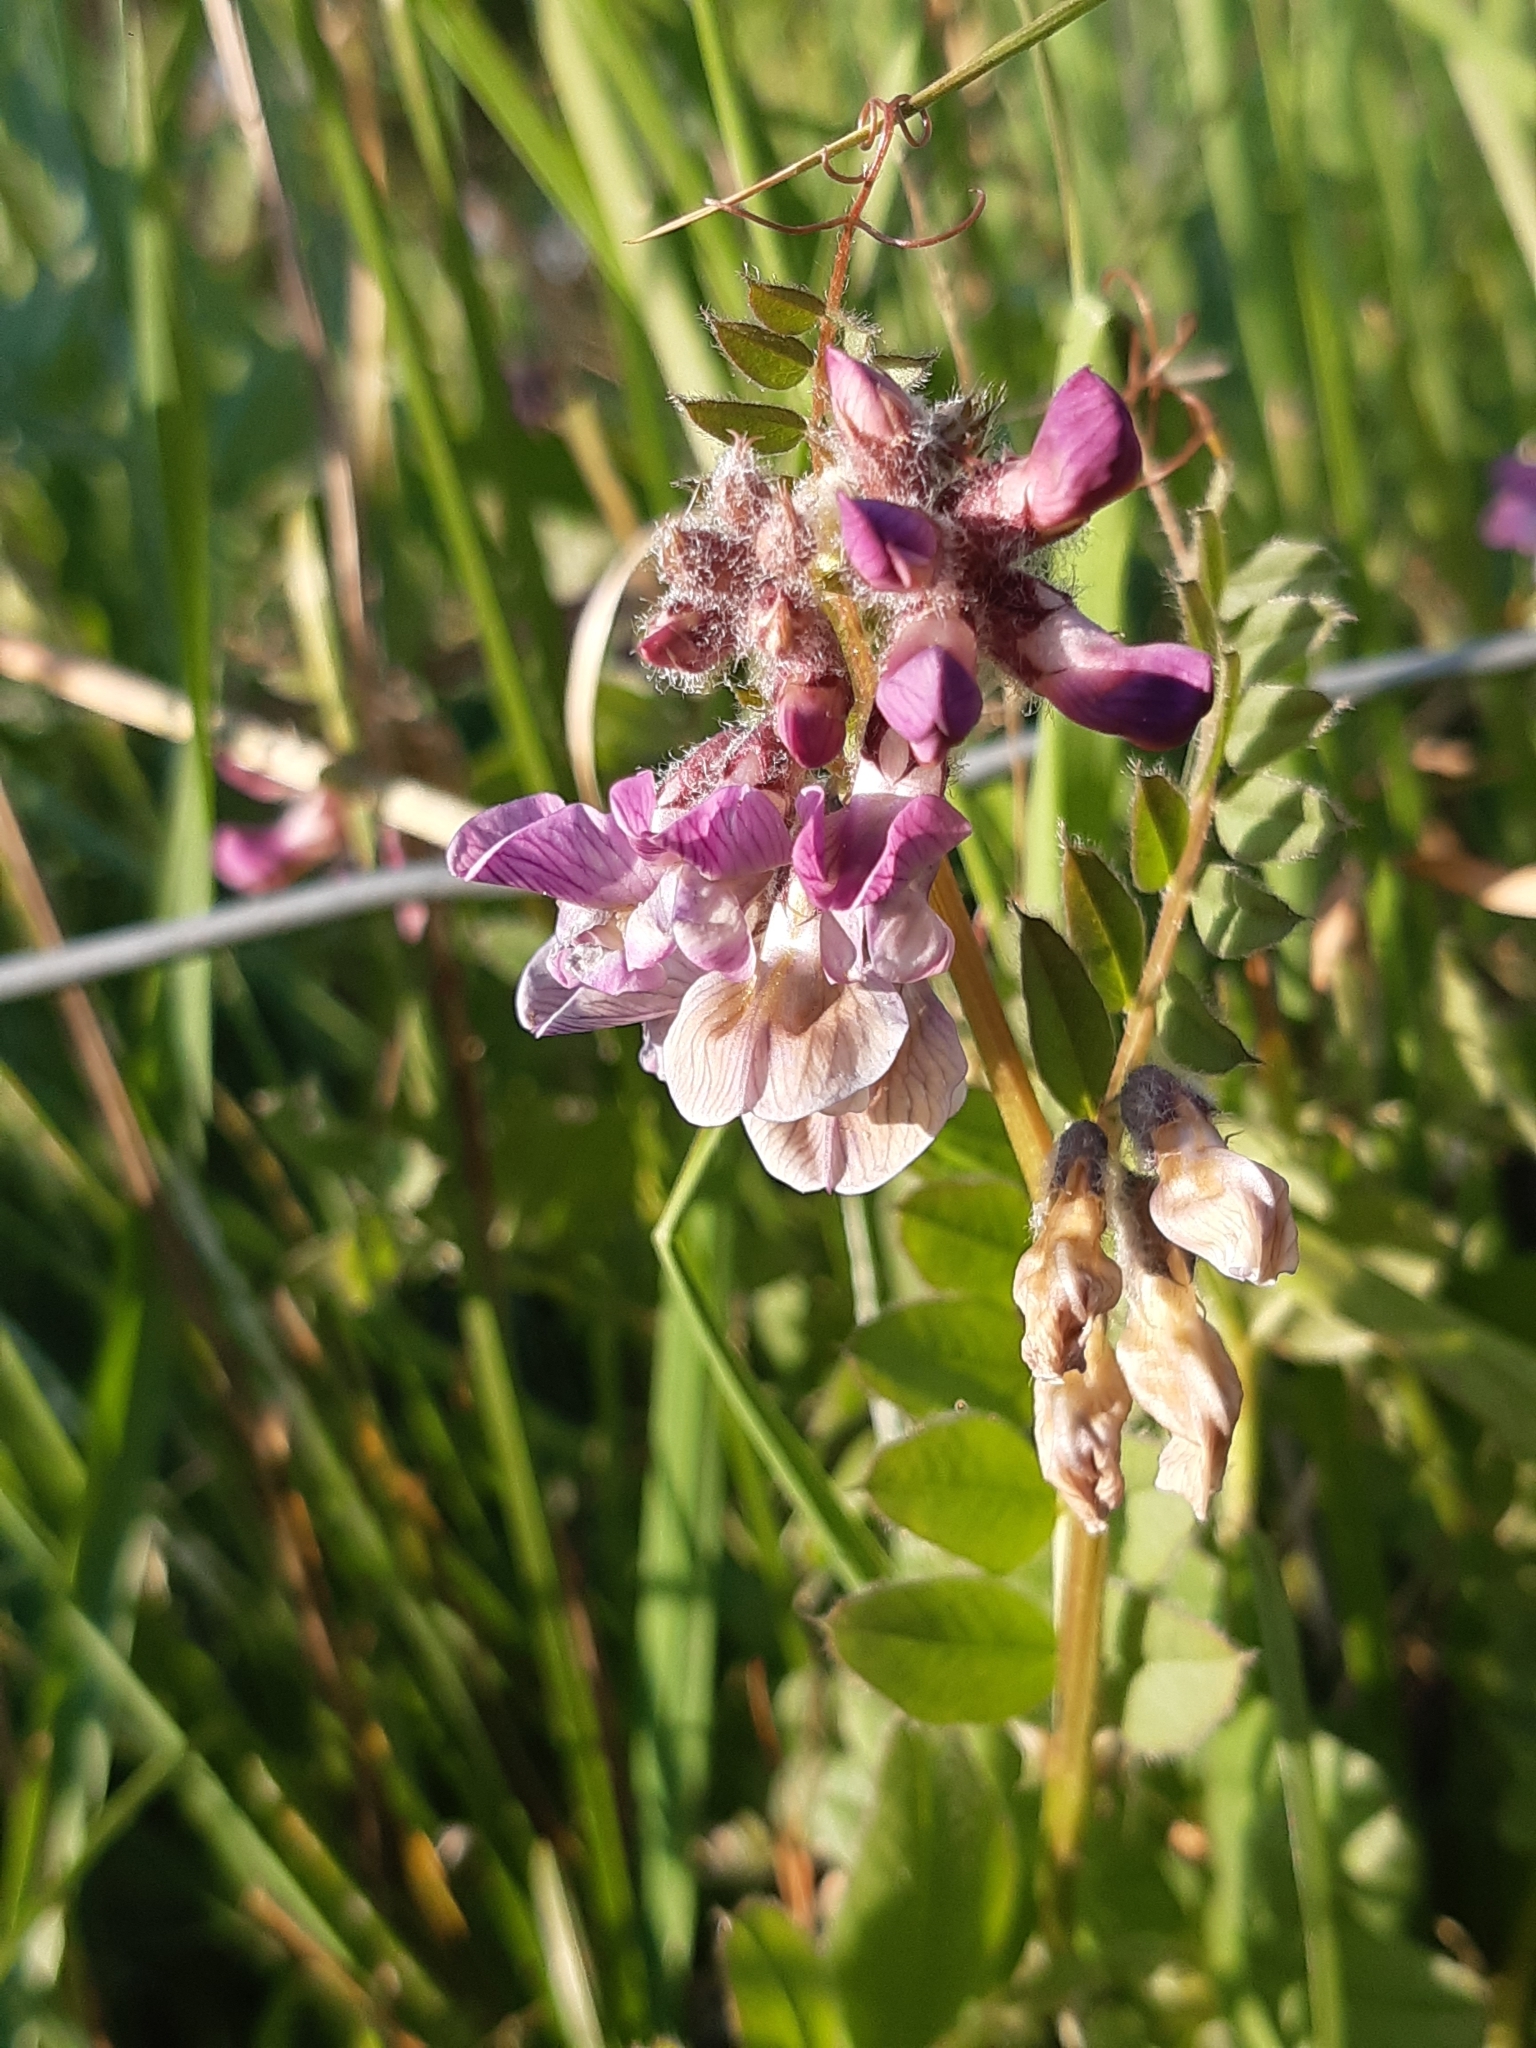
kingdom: Plantae
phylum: Tracheophyta
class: Magnoliopsida
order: Fabales
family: Fabaceae
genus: Vicia
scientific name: Vicia sepium
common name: Bush vetch
